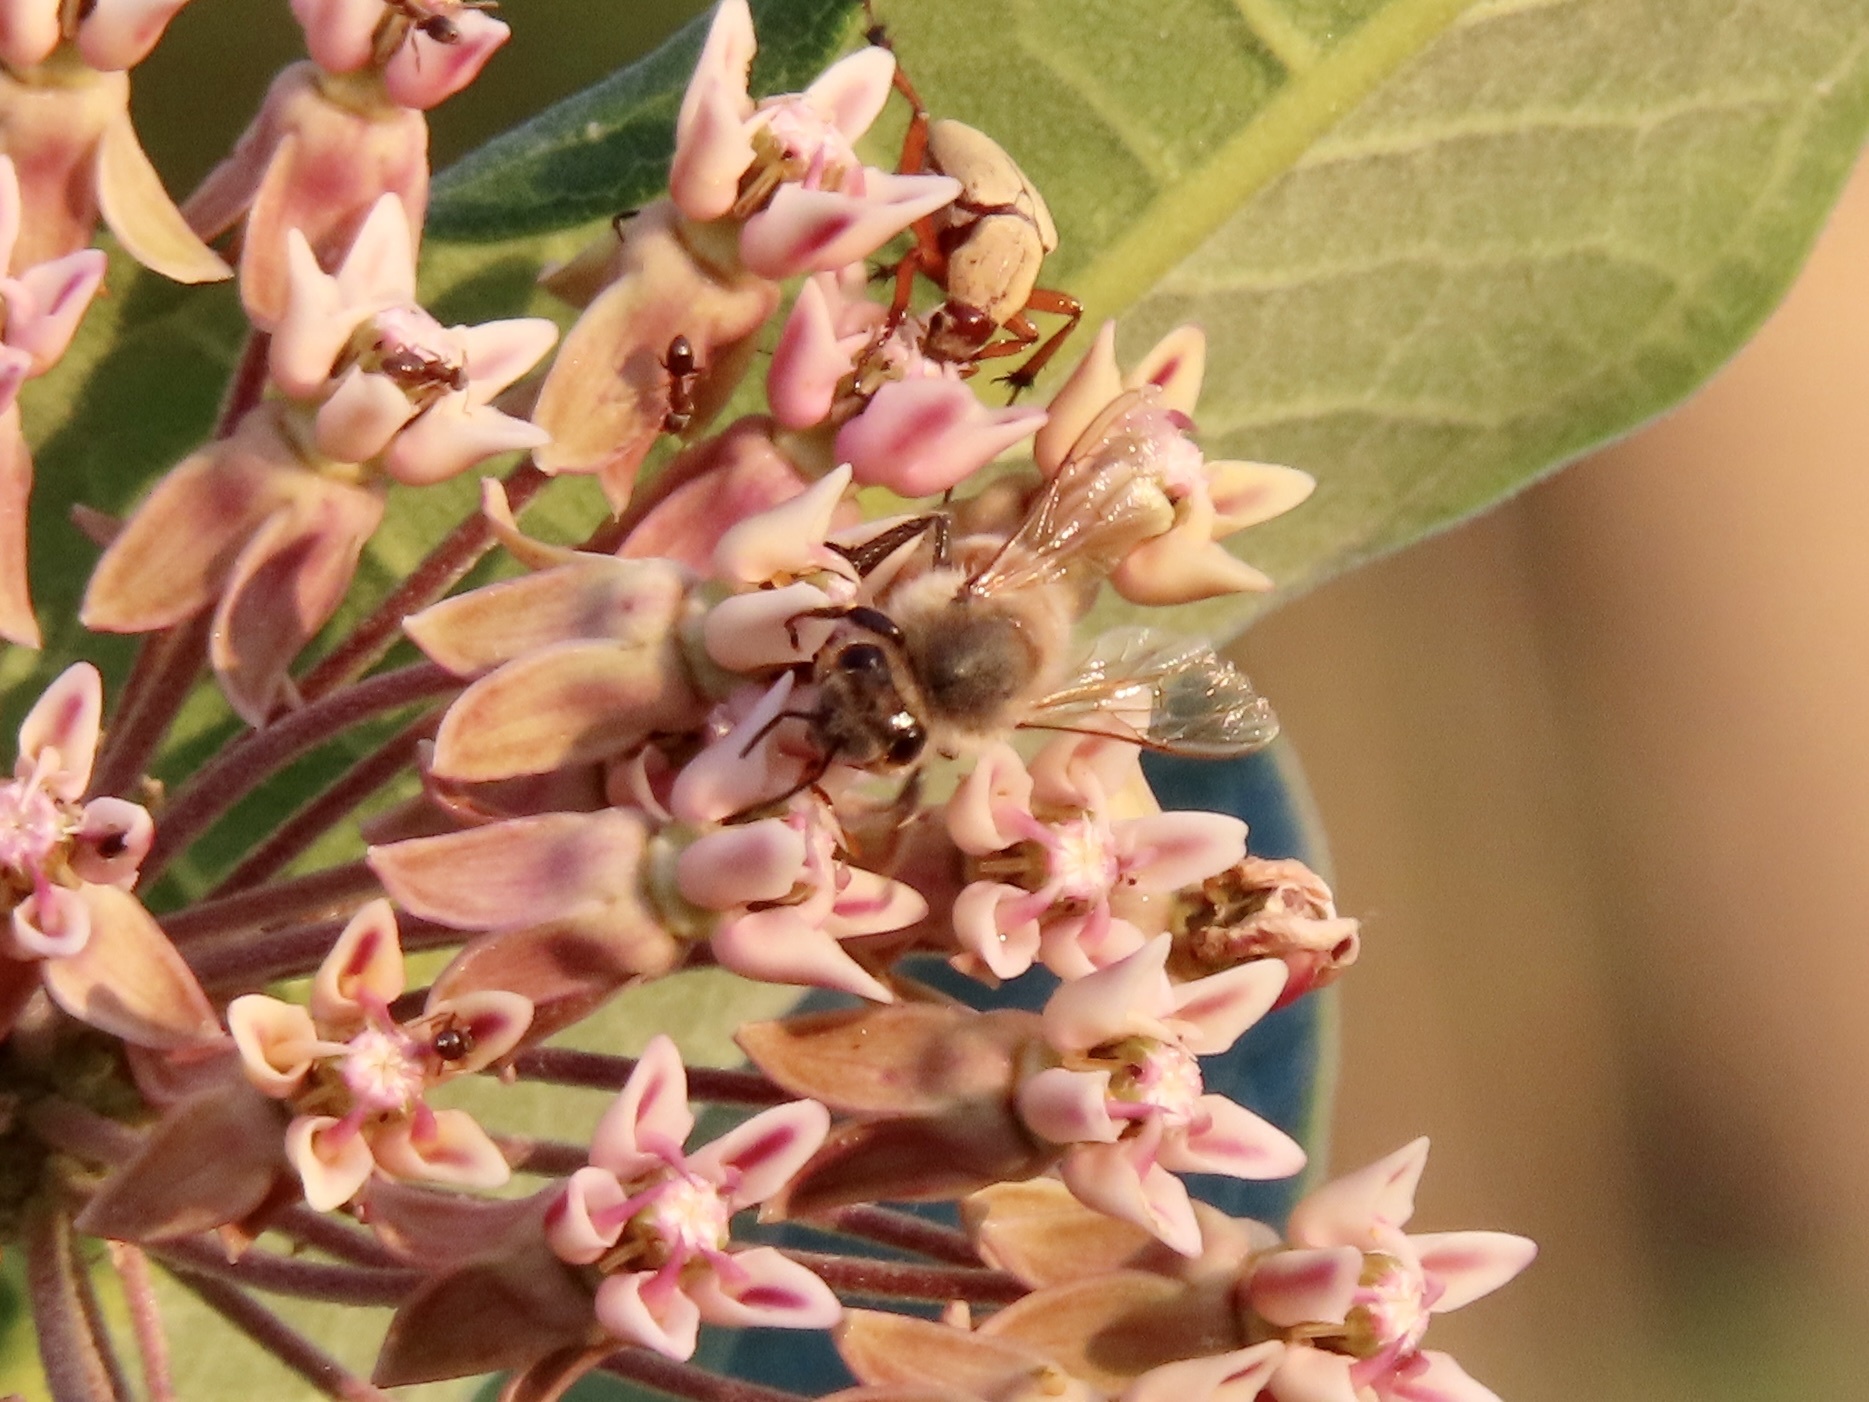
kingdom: Animalia
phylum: Arthropoda
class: Insecta
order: Hymenoptera
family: Apidae
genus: Apis
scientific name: Apis mellifera
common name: Honey bee
